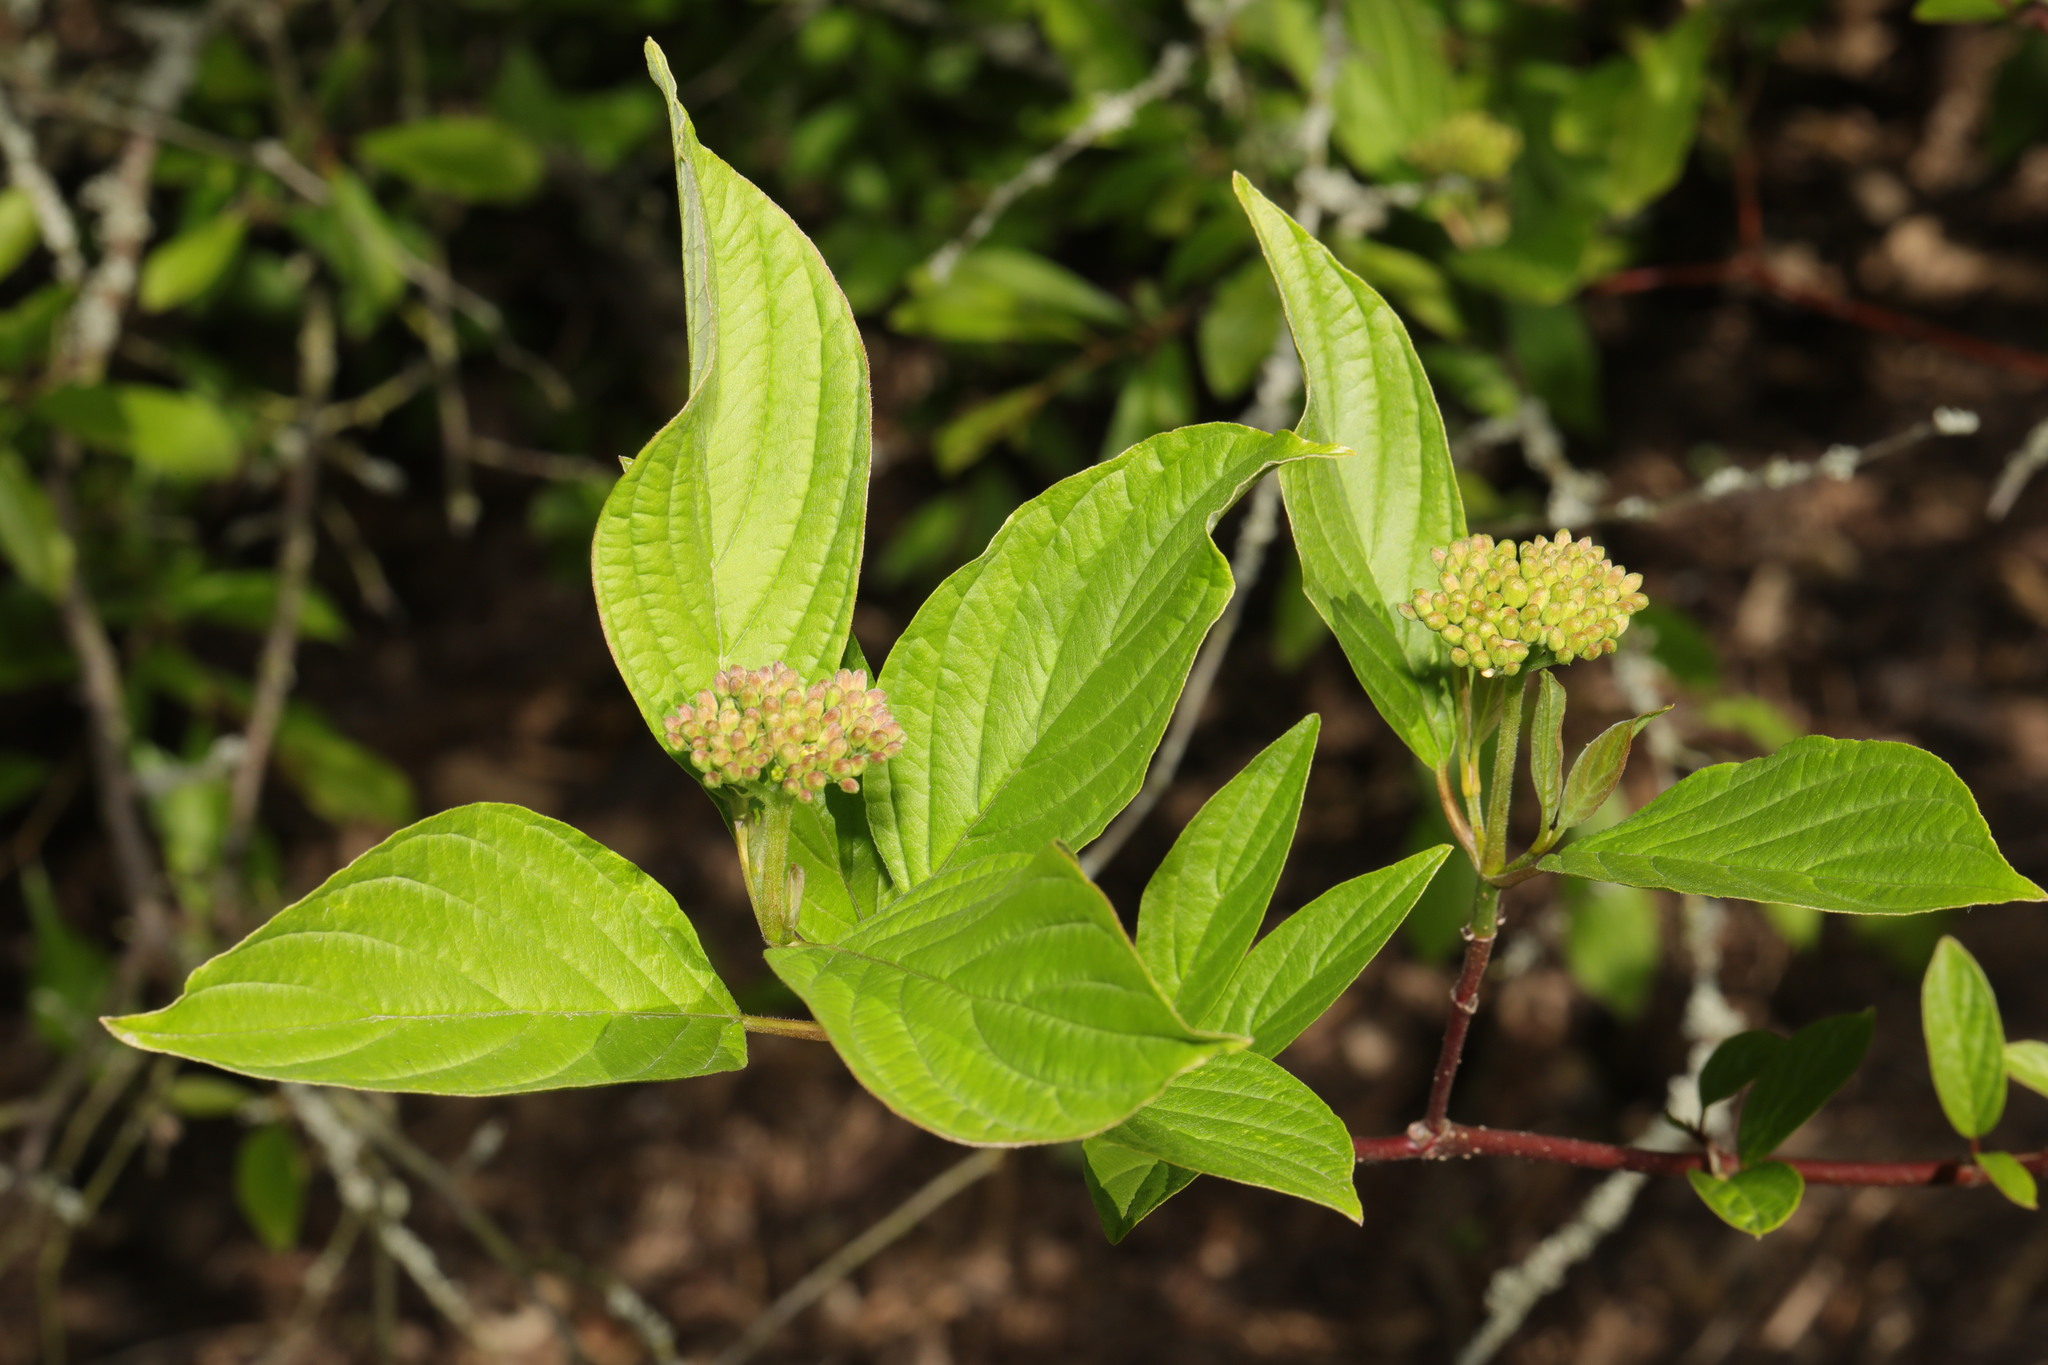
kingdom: Plantae
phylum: Tracheophyta
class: Magnoliopsida
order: Cornales
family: Cornaceae
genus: Cornus
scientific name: Cornus sanguinea
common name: Dogwood
